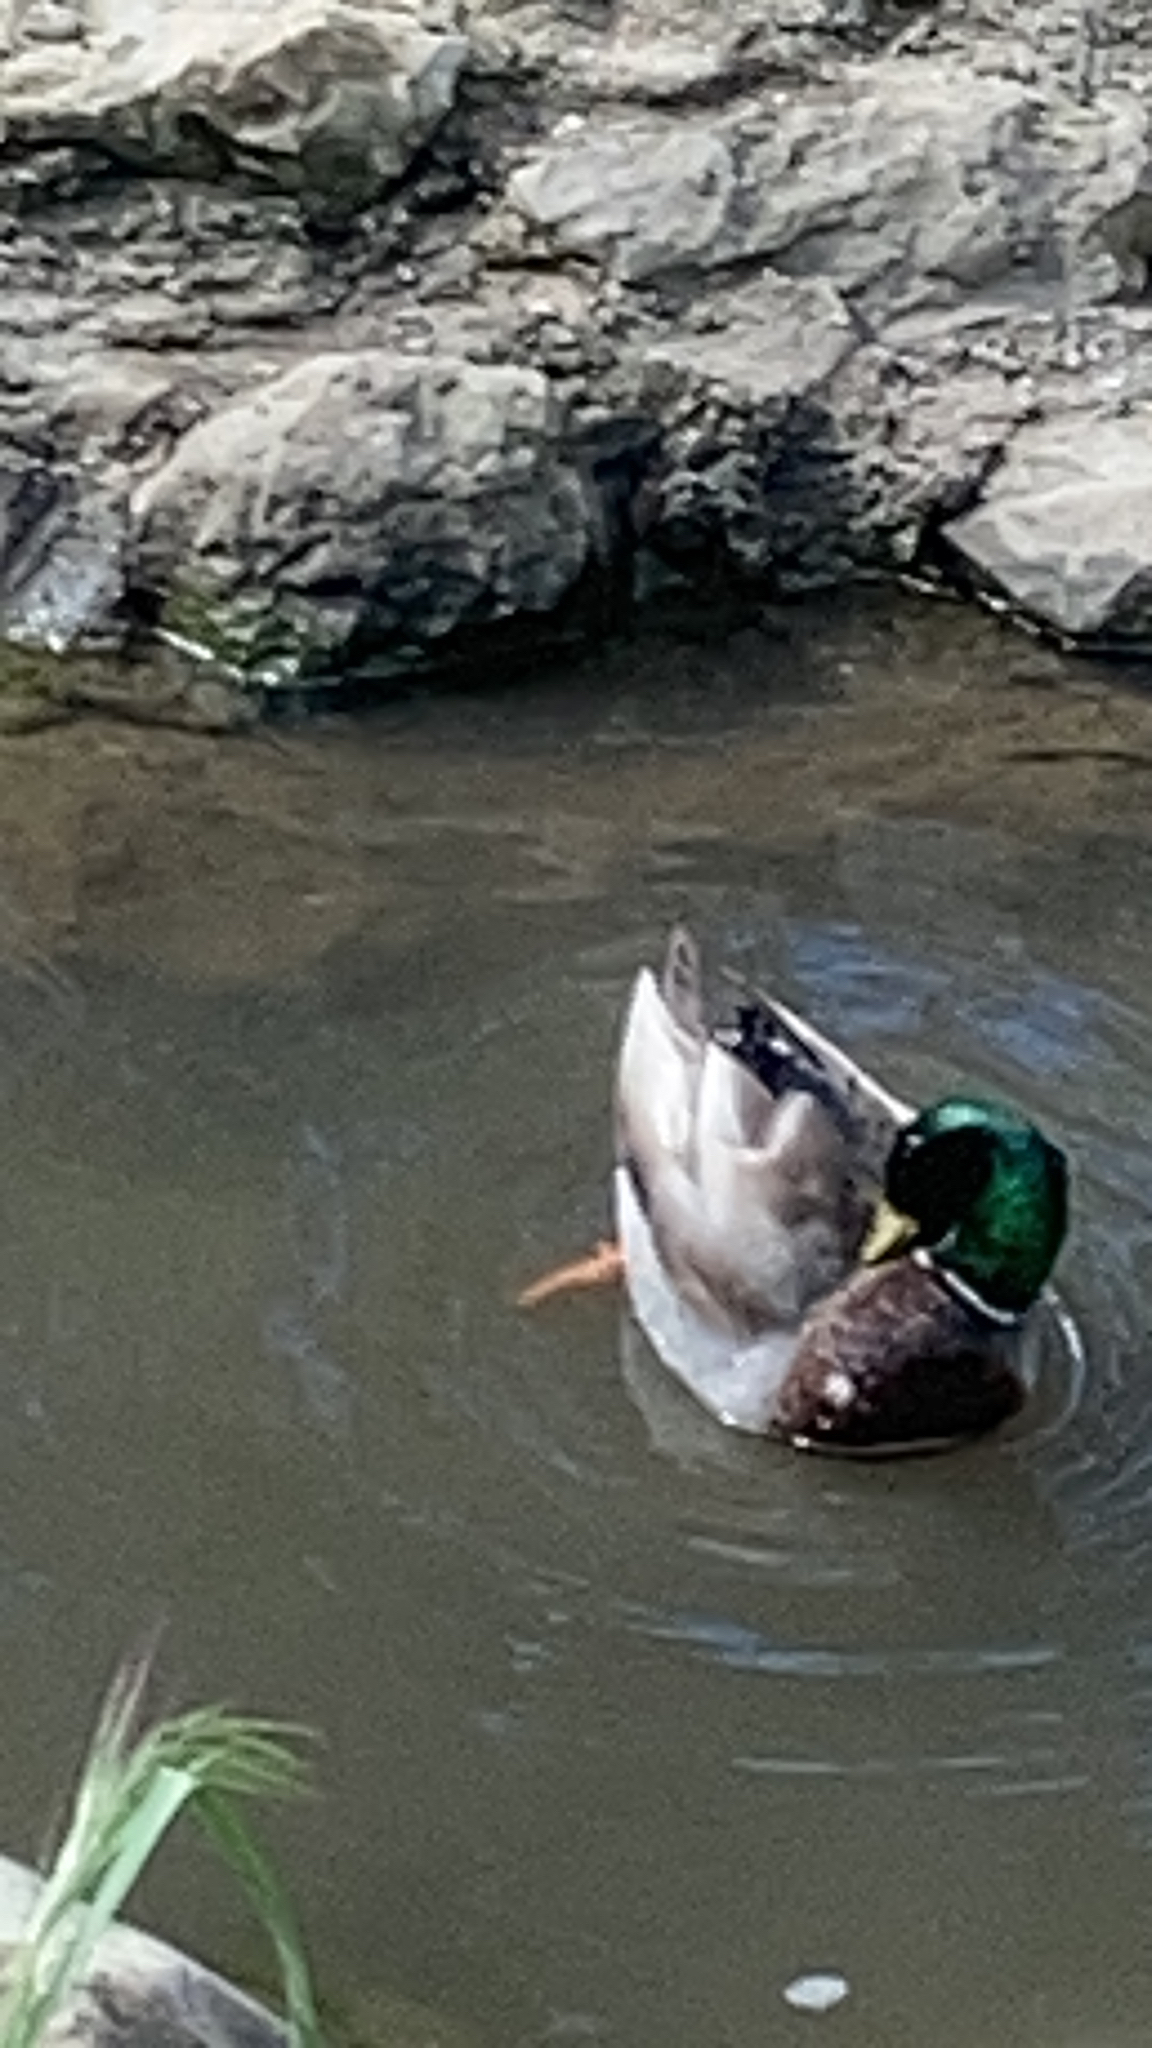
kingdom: Animalia
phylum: Chordata
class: Aves
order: Anseriformes
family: Anatidae
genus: Anas
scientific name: Anas platyrhynchos
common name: Mallard
